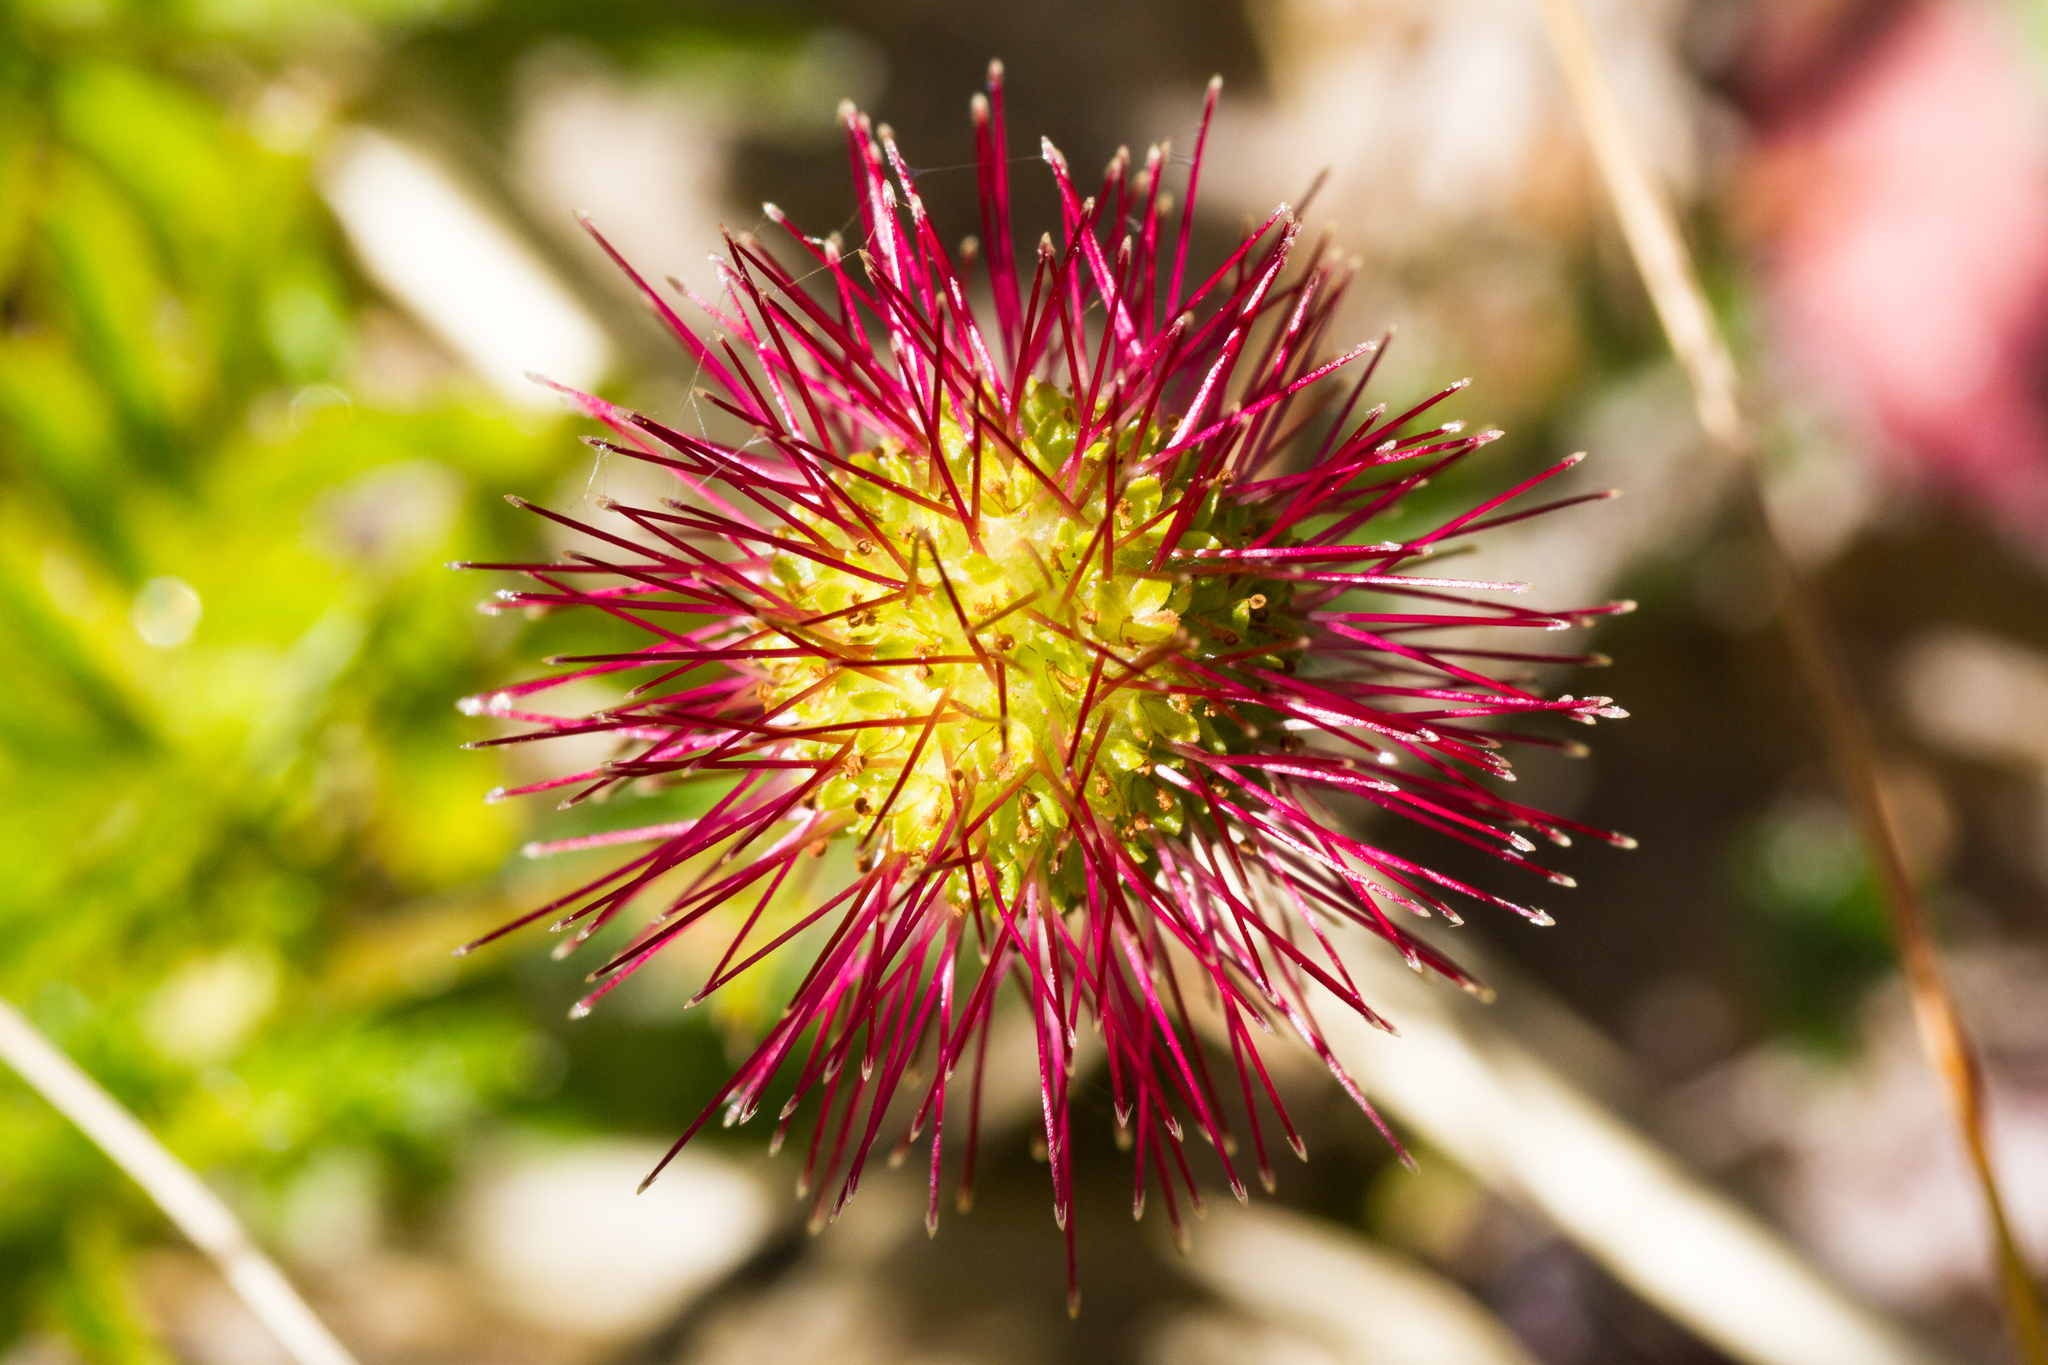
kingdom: Plantae
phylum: Tracheophyta
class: Magnoliopsida
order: Rosales
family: Rosaceae
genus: Acaena
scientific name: Acaena novae-zelandiae
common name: Pirri-pirri-bur
